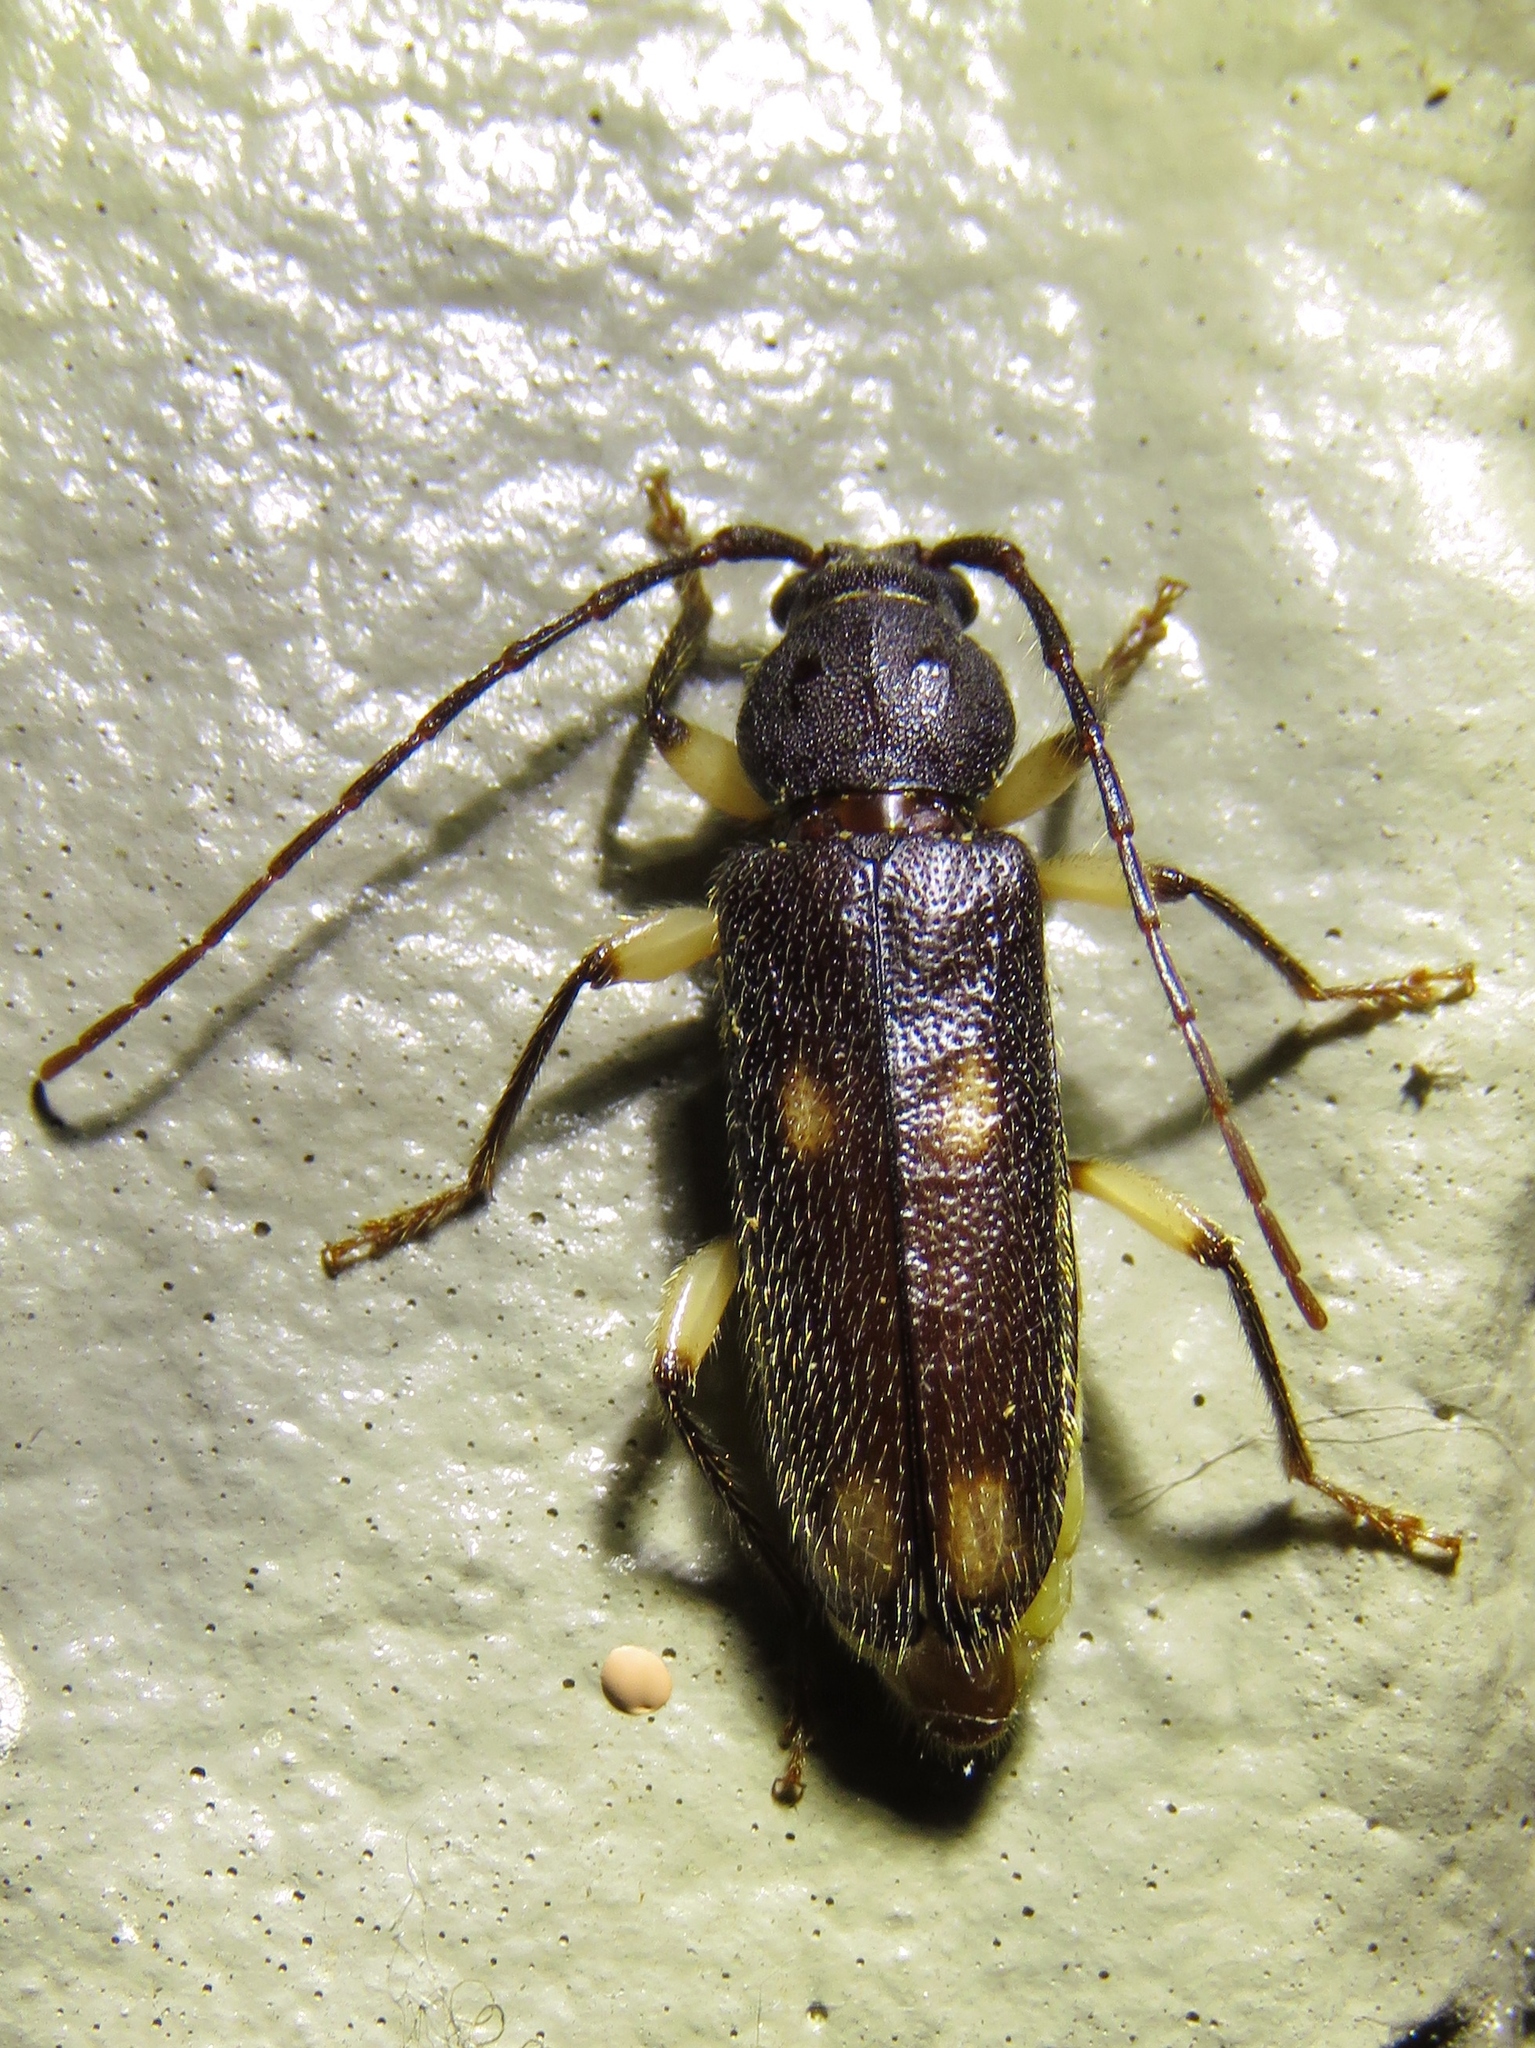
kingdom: Animalia
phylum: Arthropoda
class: Insecta
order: Coleoptera
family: Cerambycidae
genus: Tylonotus
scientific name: Tylonotus bimaculatus
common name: Ash and privet borer
